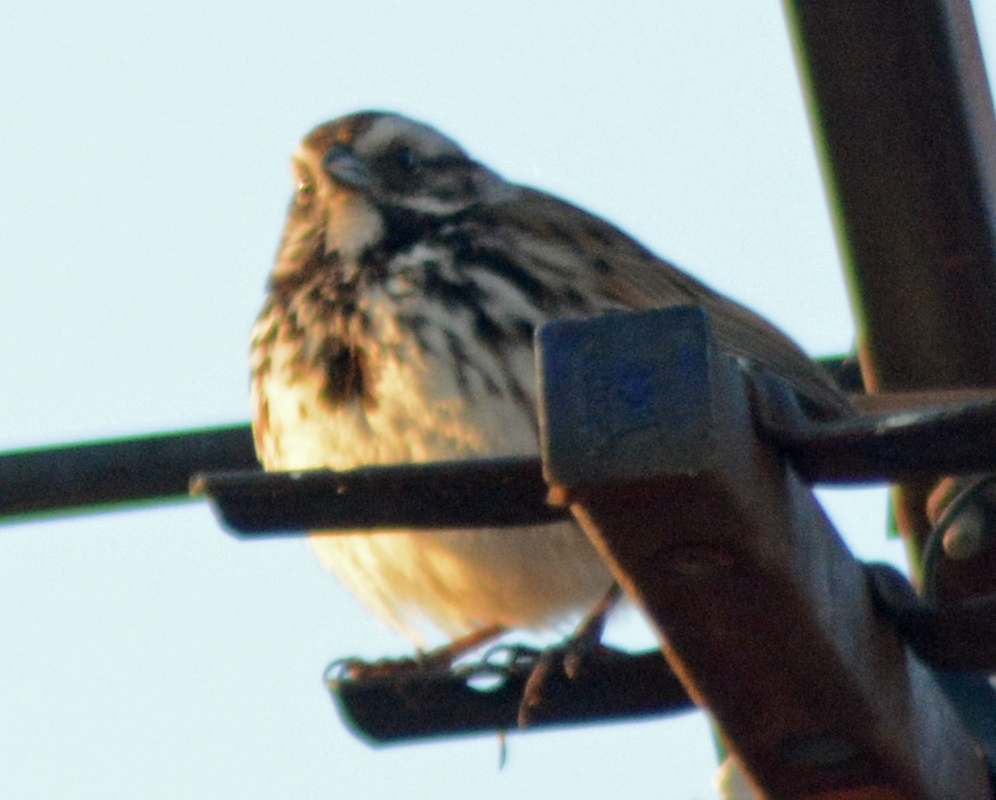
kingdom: Animalia
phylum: Chordata
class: Aves
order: Passeriformes
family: Passerellidae
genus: Melospiza
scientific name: Melospiza melodia
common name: Song sparrow
